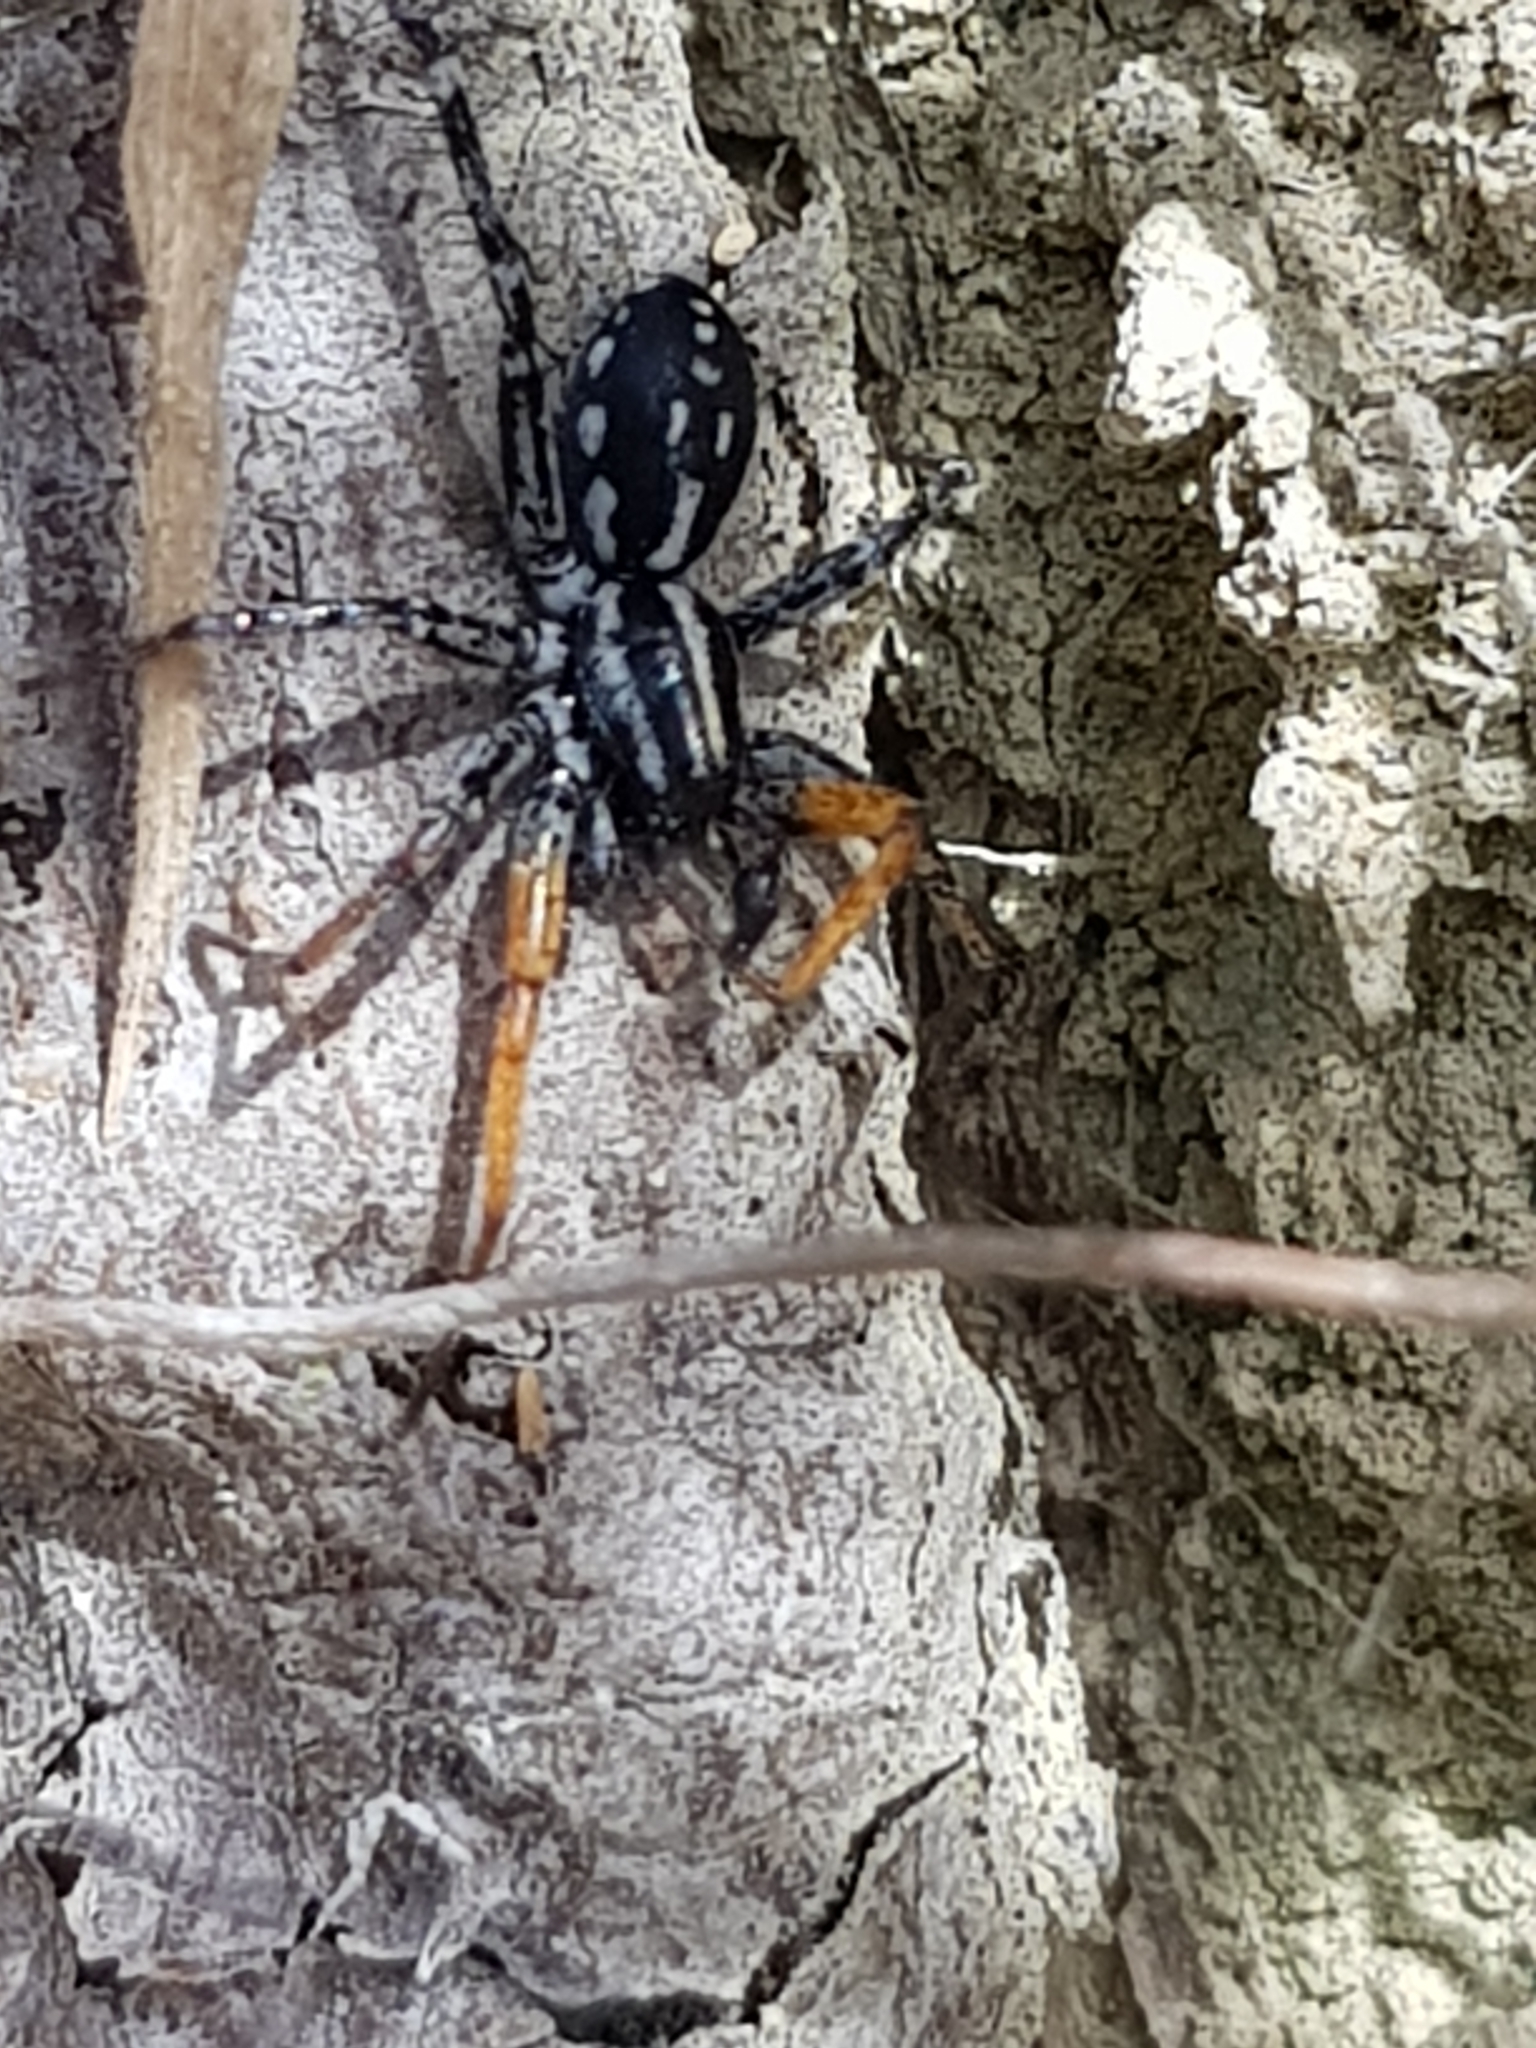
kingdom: Animalia
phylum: Arthropoda
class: Arachnida
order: Araneae
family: Corinnidae
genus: Nyssus
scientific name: Nyssus coloripes
